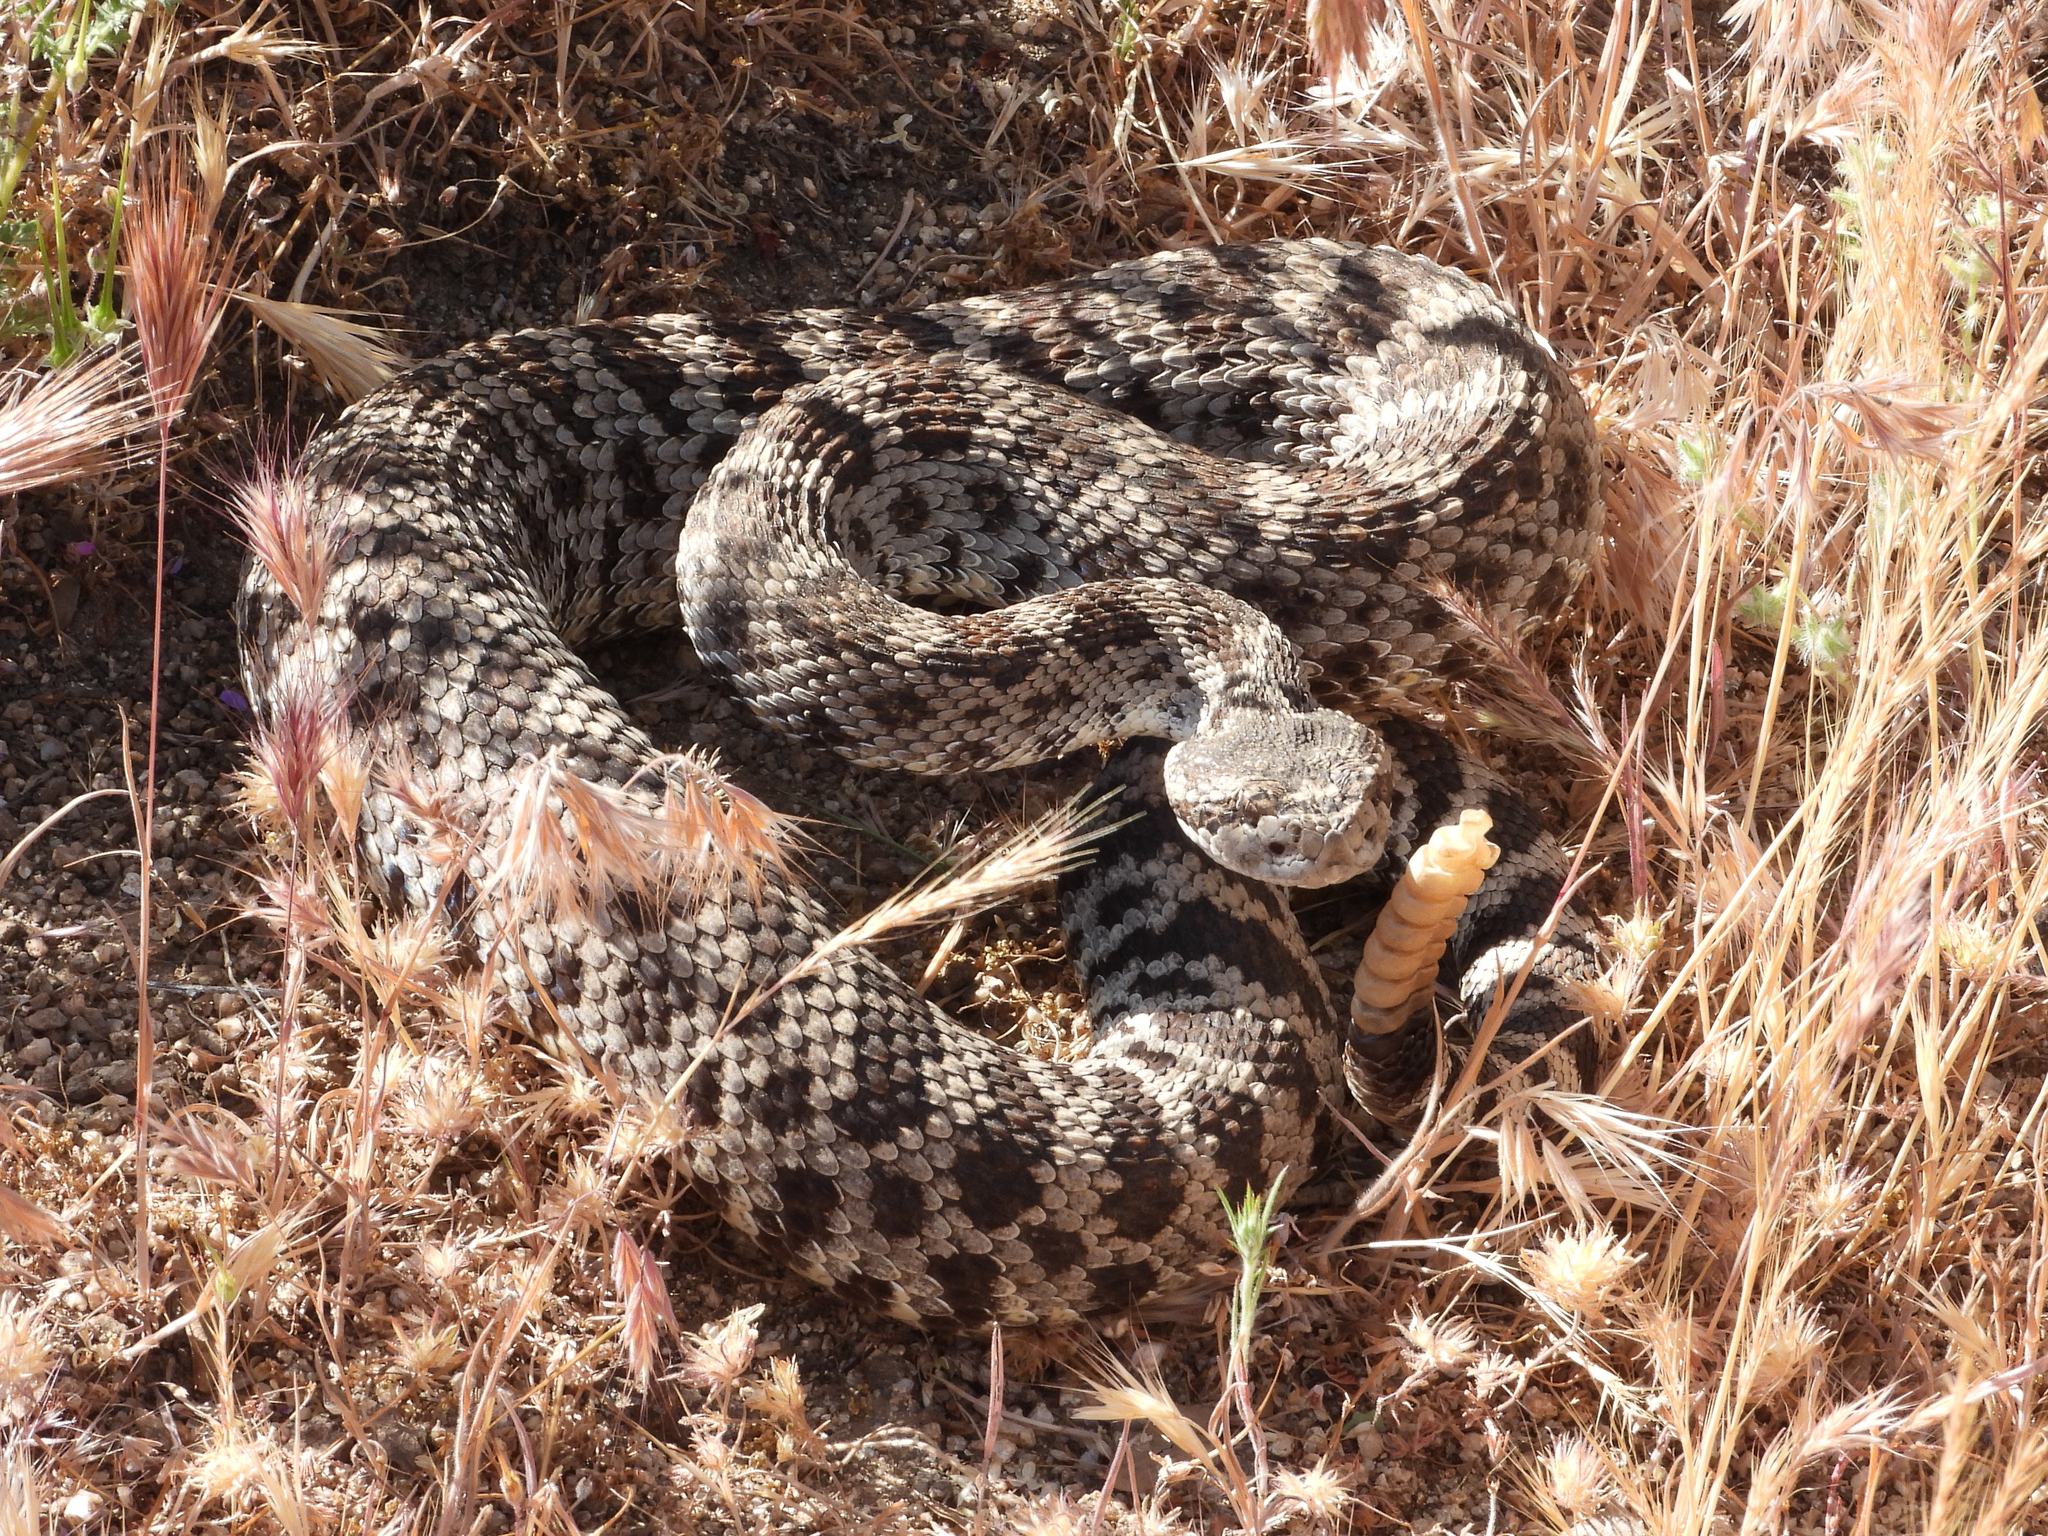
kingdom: Animalia
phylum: Chordata
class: Squamata
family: Viperidae
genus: Crotalus
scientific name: Crotalus oreganus
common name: Abyssus
